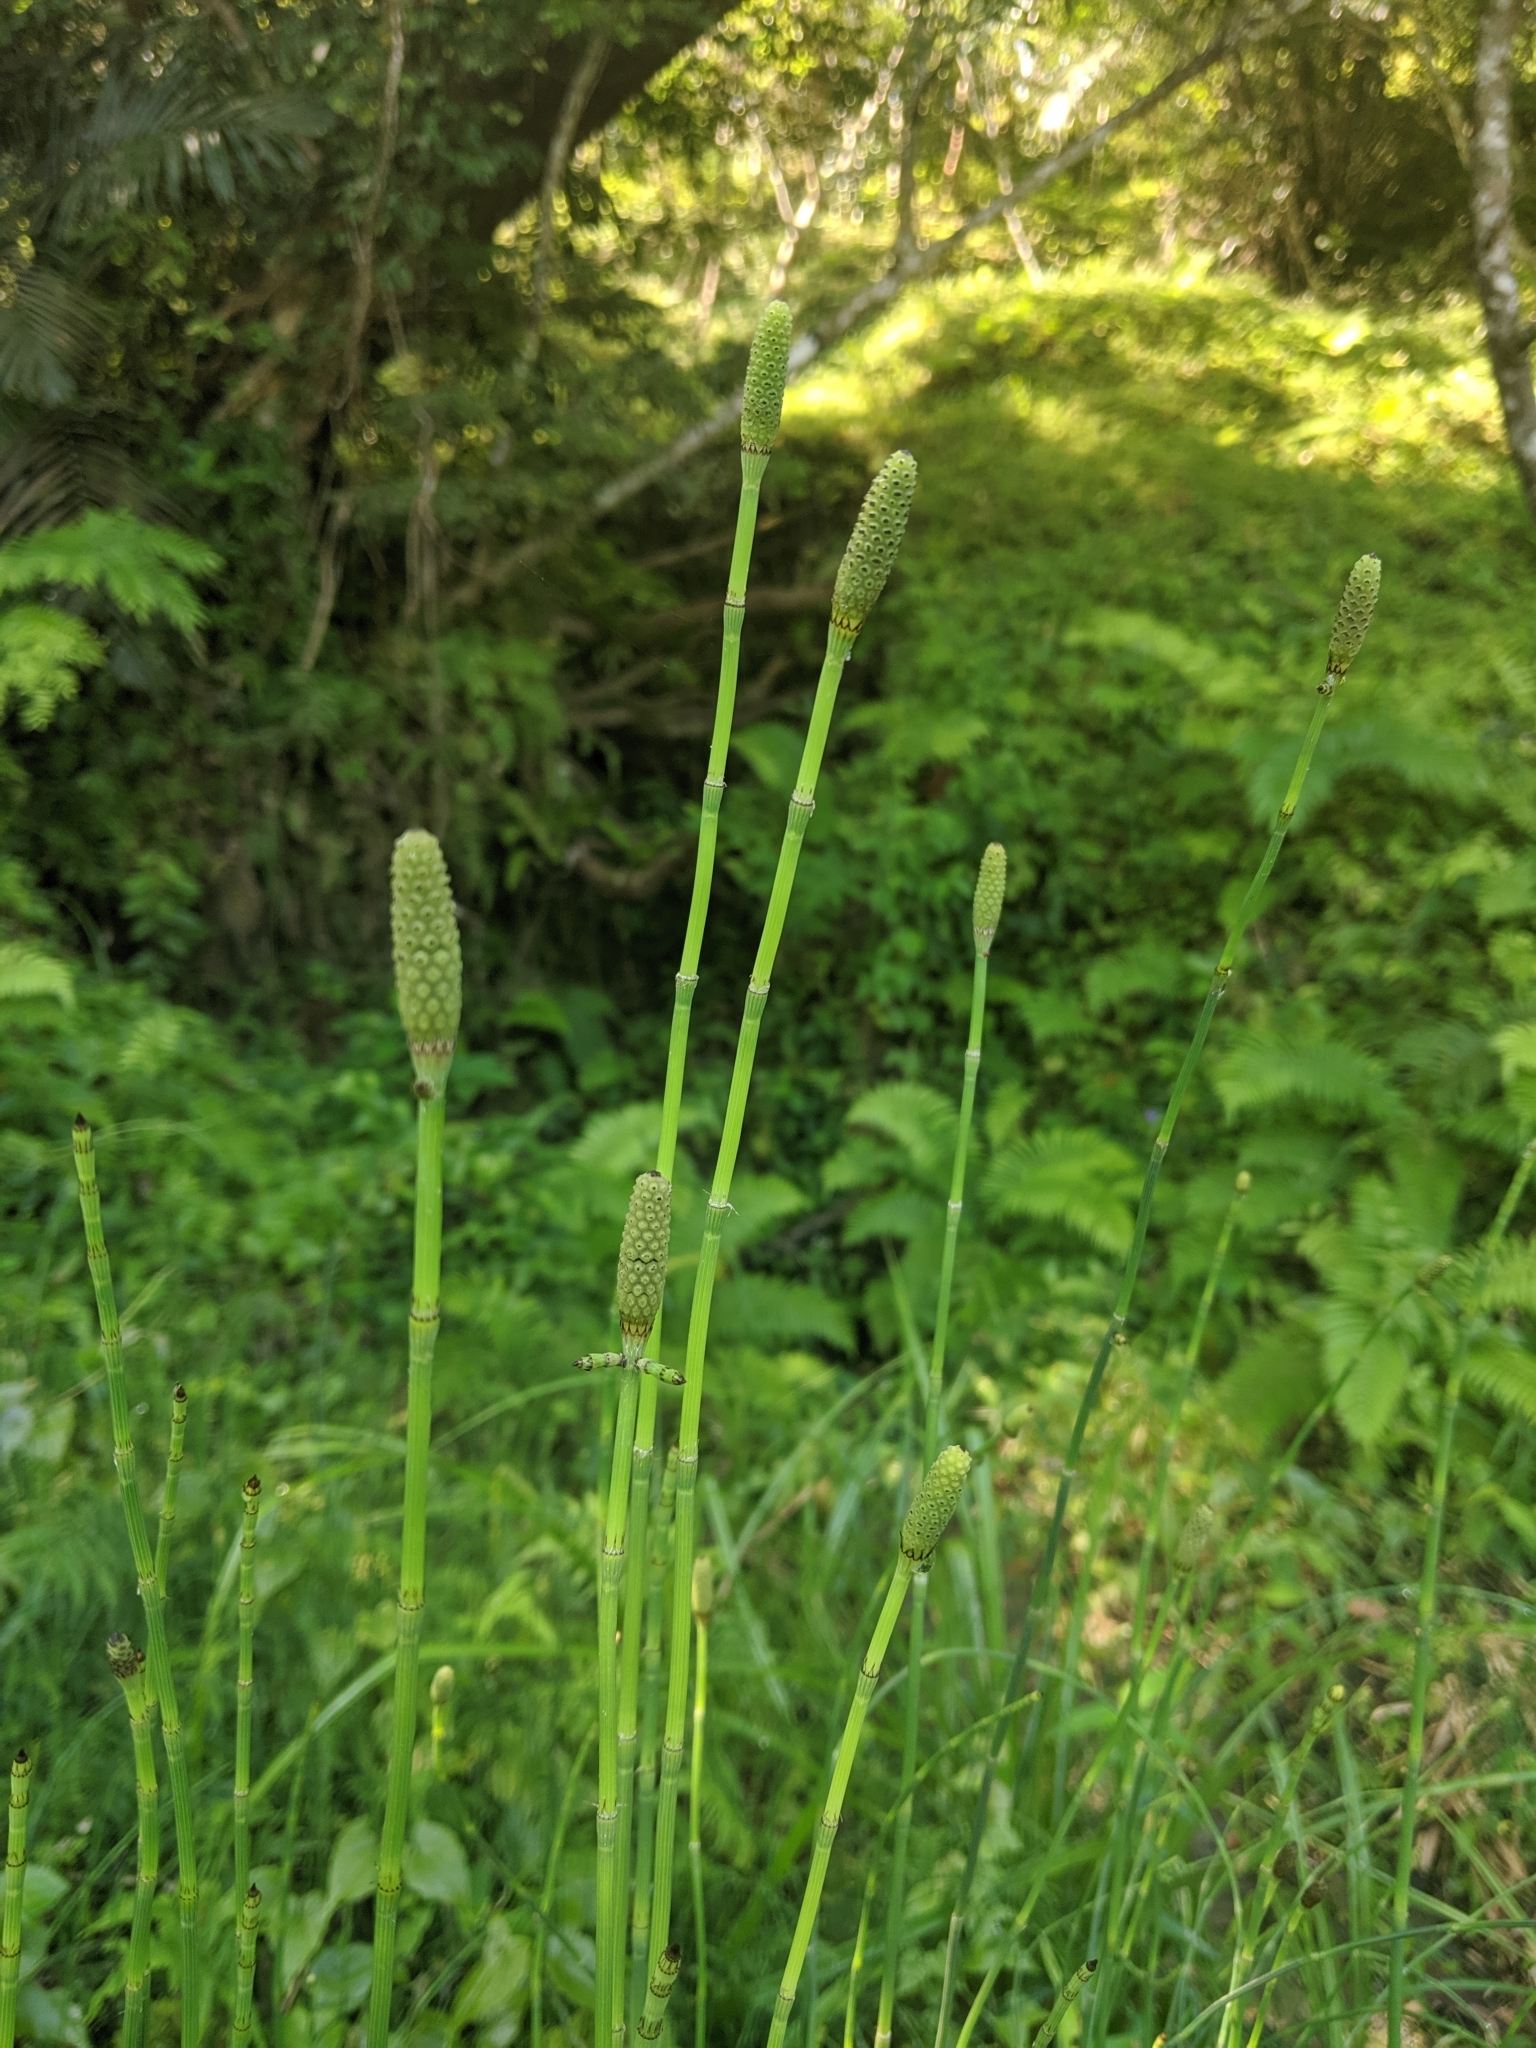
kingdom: Plantae
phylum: Tracheophyta
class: Polypodiopsida
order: Equisetales
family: Equisetaceae
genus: Equisetum
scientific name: Equisetum ramosissimum
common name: Branched horsetail
